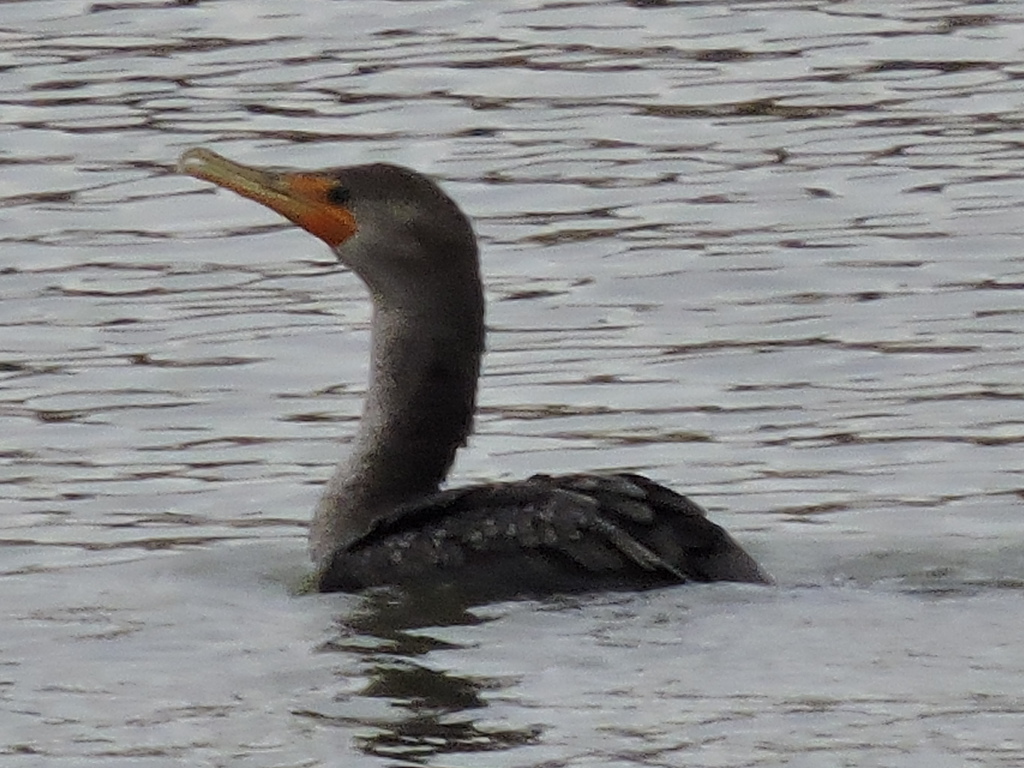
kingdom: Animalia
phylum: Chordata
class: Aves
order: Suliformes
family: Phalacrocoracidae
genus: Phalacrocorax
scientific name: Phalacrocorax auritus
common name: Double-crested cormorant
